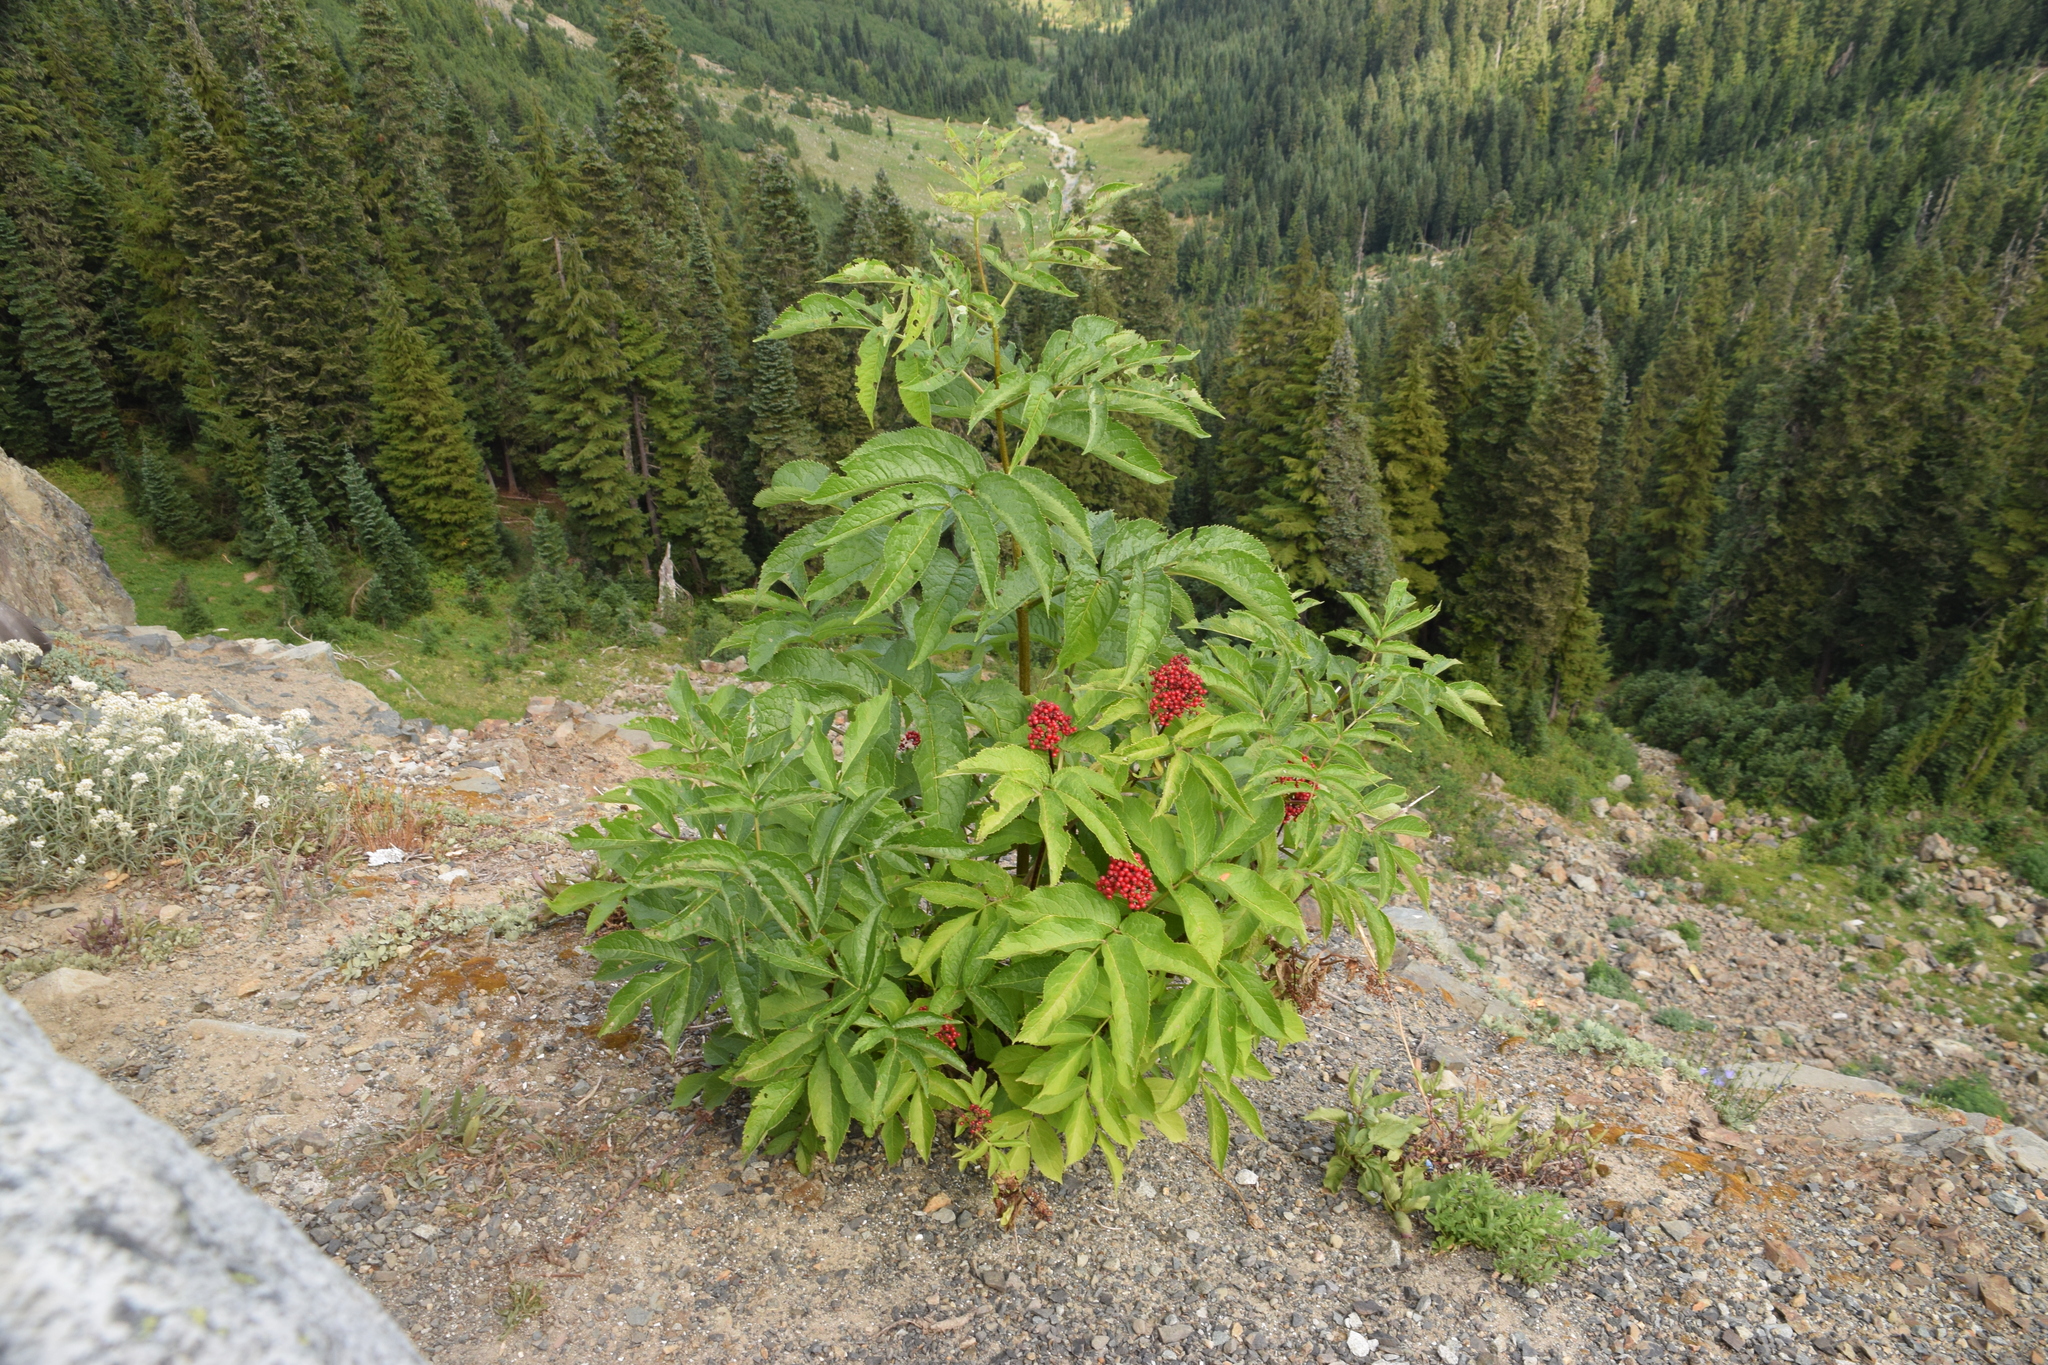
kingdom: Plantae
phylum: Tracheophyta
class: Magnoliopsida
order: Dipsacales
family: Viburnaceae
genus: Sambucus
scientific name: Sambucus racemosa
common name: Red-berried elder
